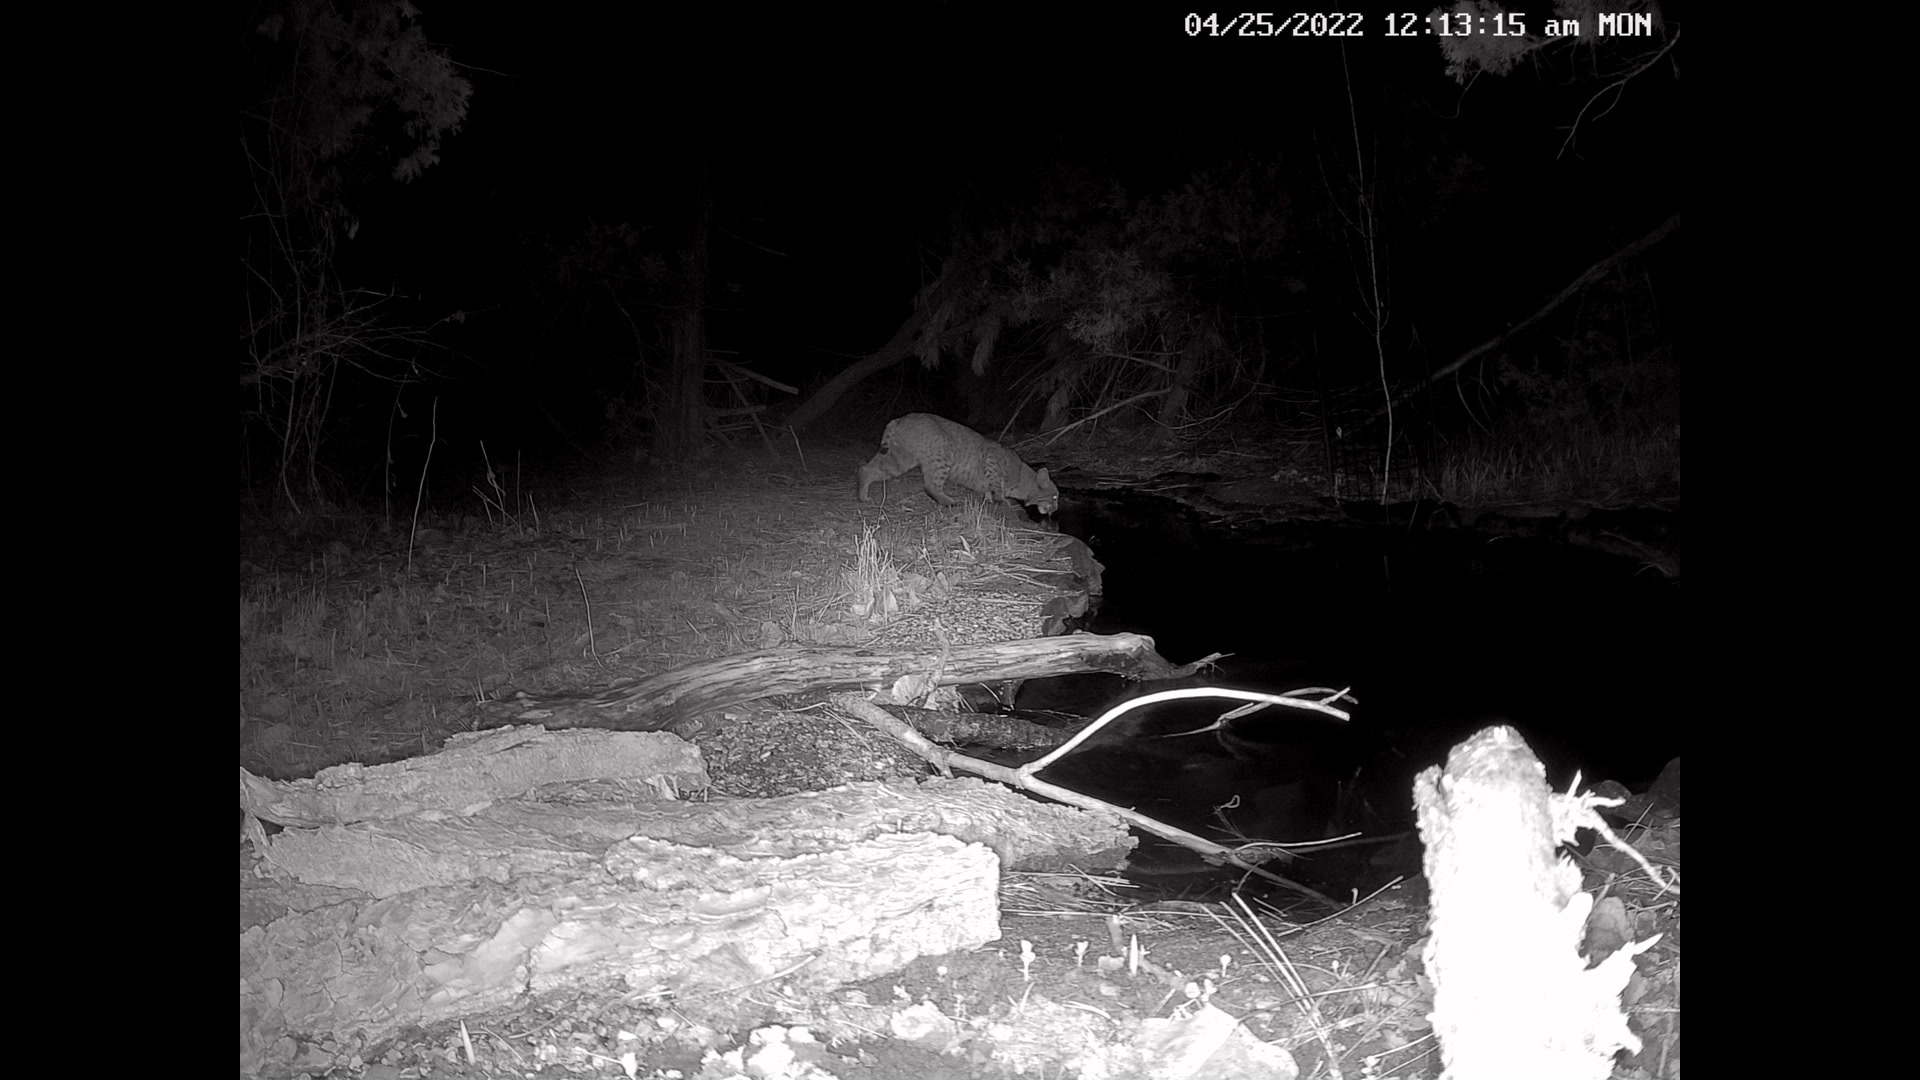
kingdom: Animalia
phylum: Chordata
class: Mammalia
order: Carnivora
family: Felidae
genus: Lynx
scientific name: Lynx rufus
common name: Bobcat
